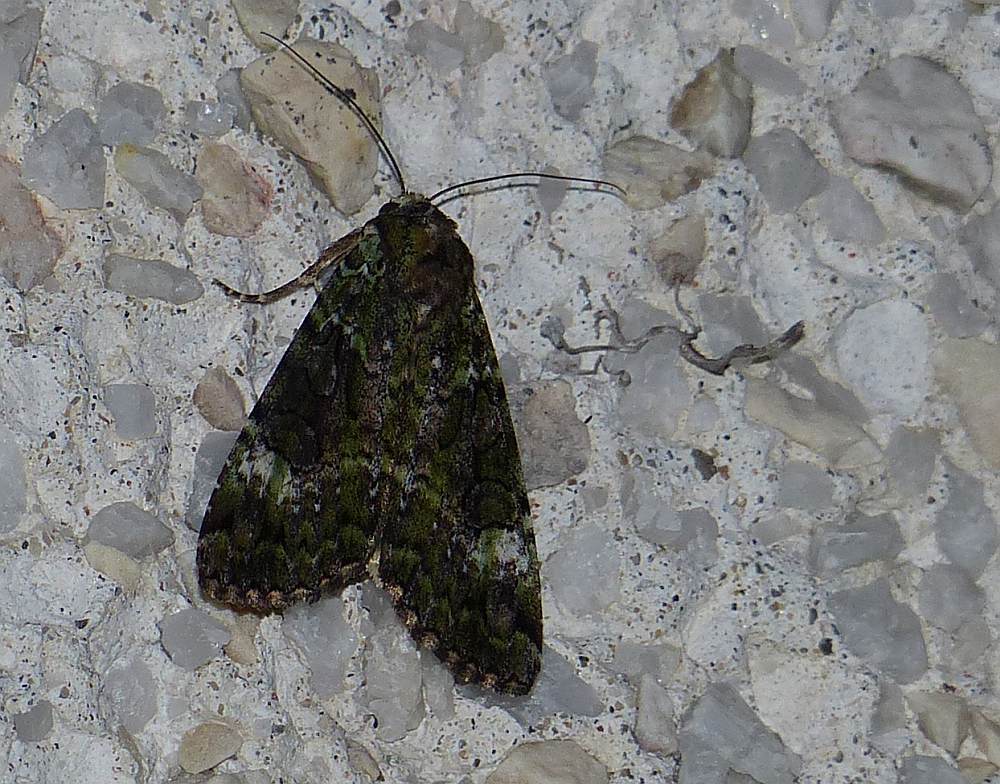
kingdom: Animalia
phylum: Arthropoda
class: Insecta
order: Lepidoptera
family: Noctuidae
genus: Anaplectoides
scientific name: Anaplectoides prasina
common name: Green arches
